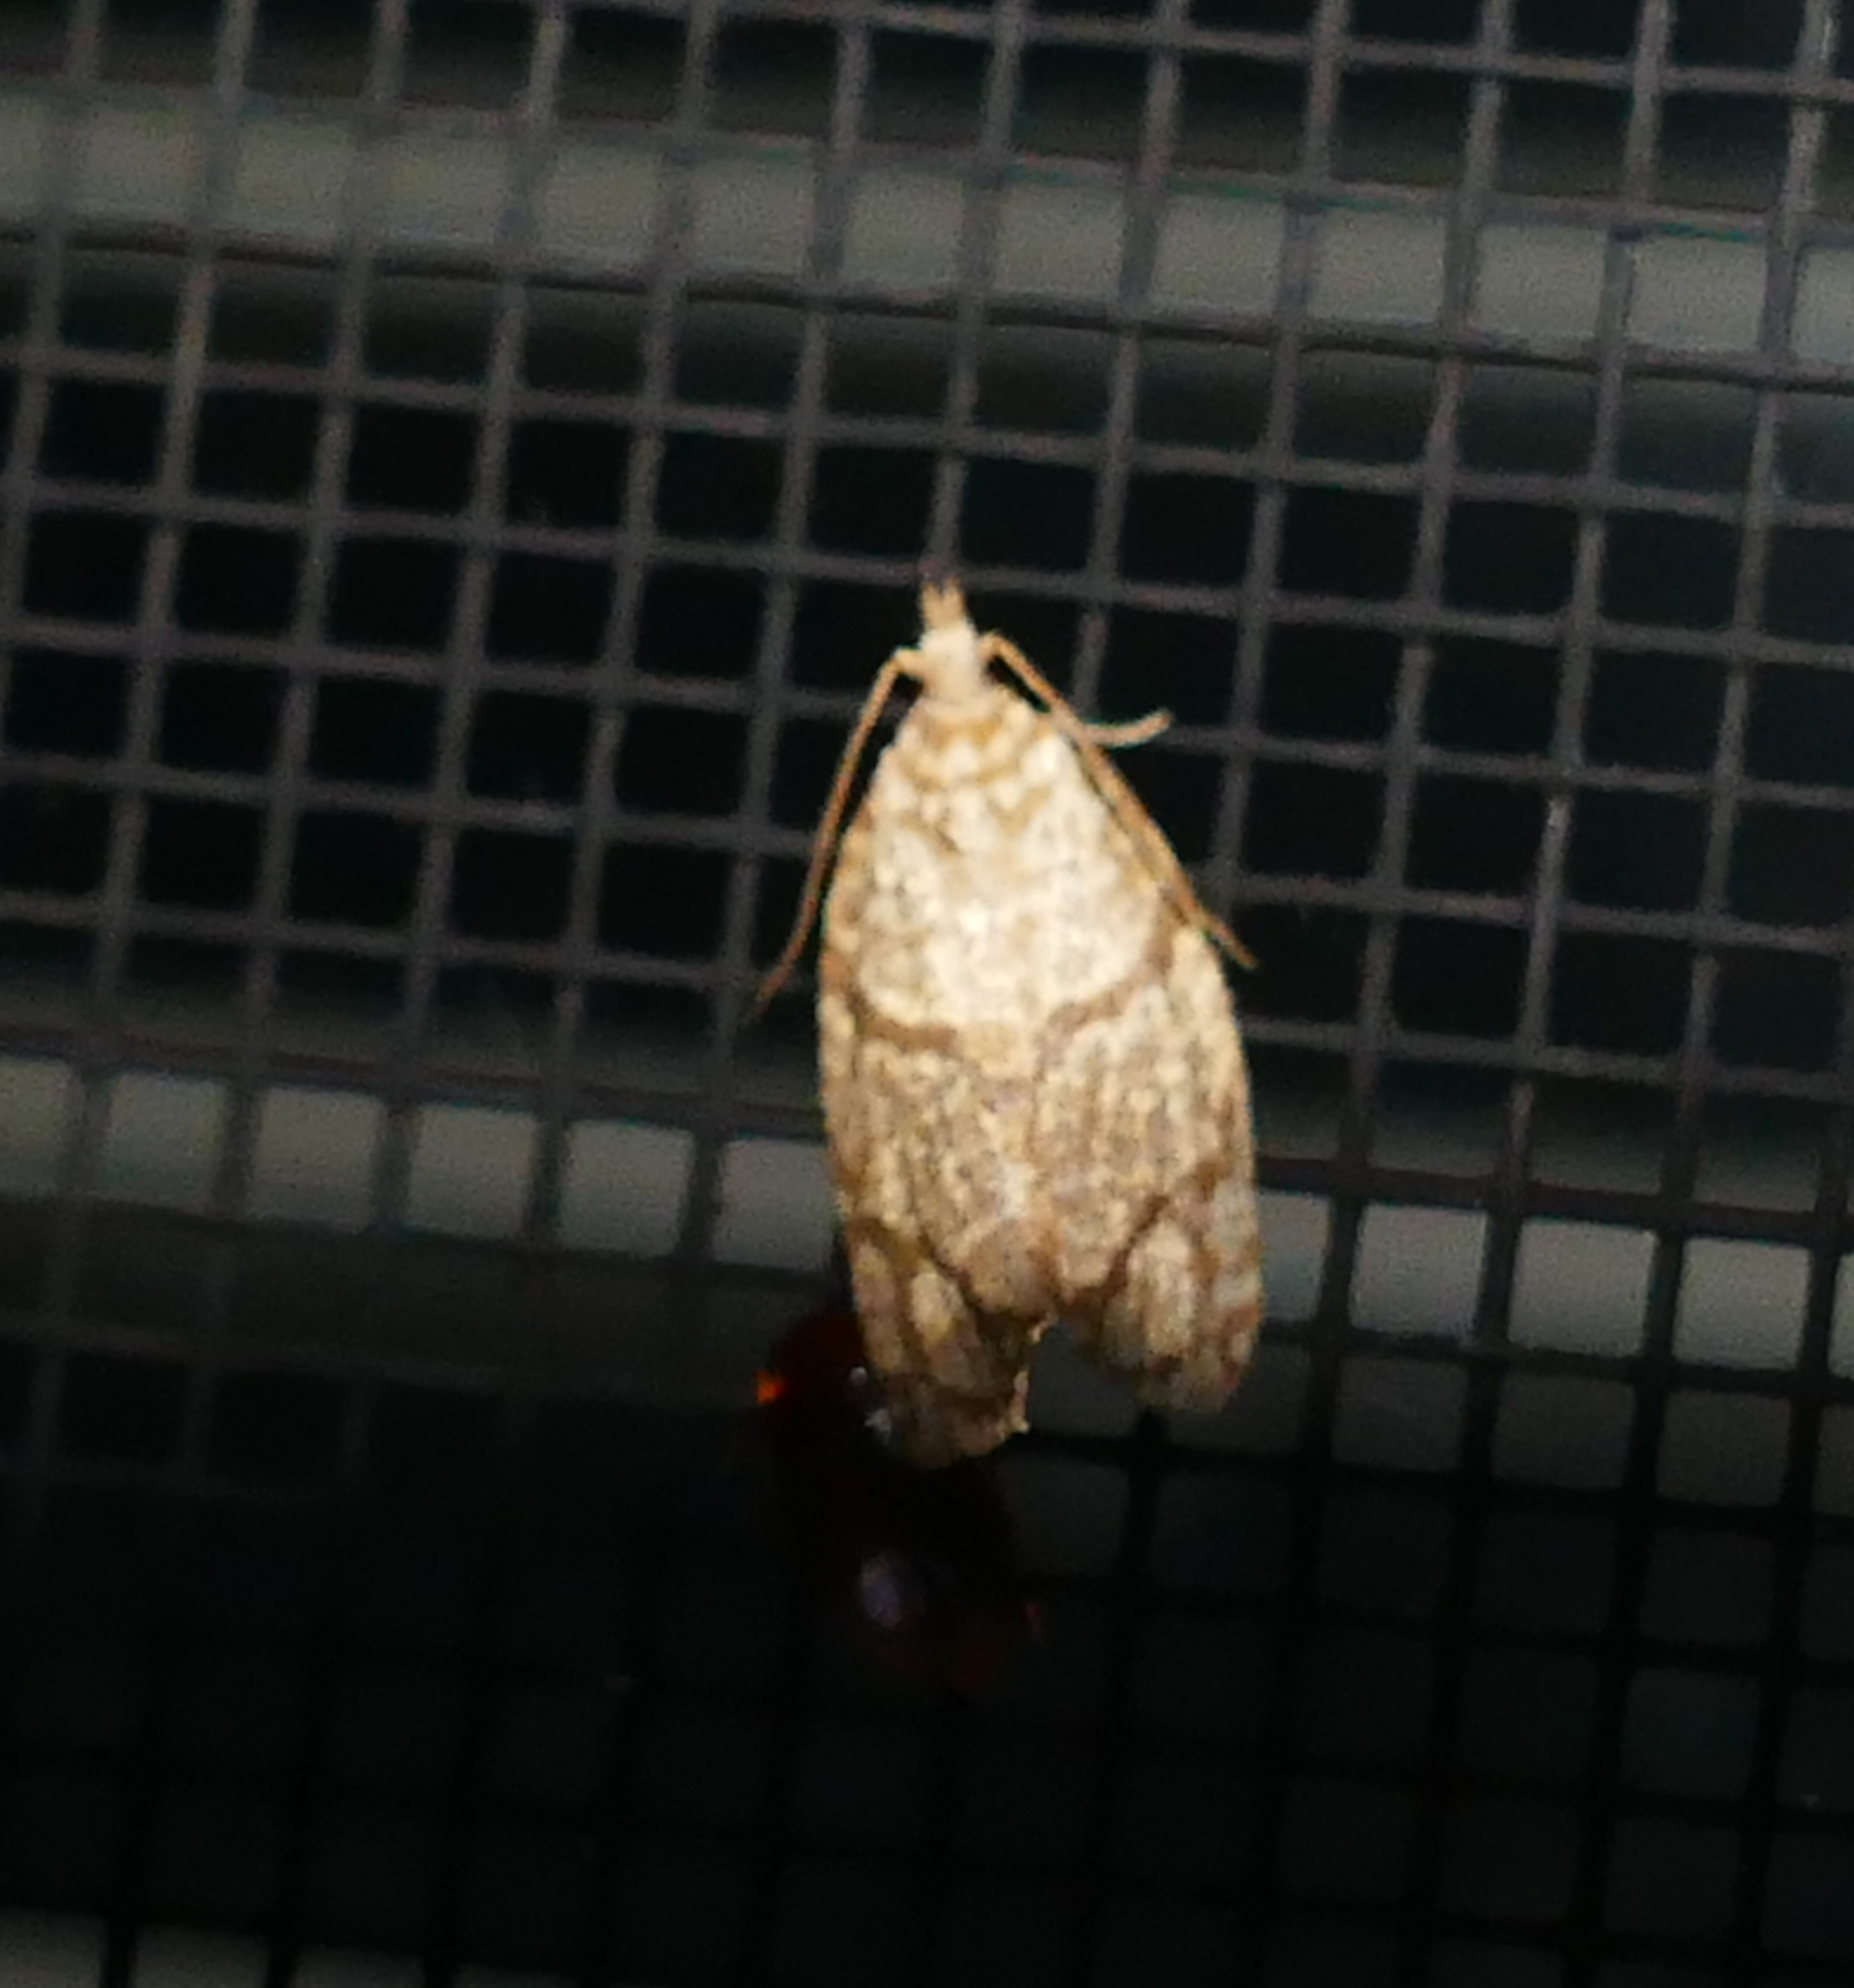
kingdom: Animalia
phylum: Arthropoda
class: Insecta
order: Lepidoptera
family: Tortricidae
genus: Argyrotaenia
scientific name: Argyrotaenia quercifoliana
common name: Yellow-winged oak leafroller moth
